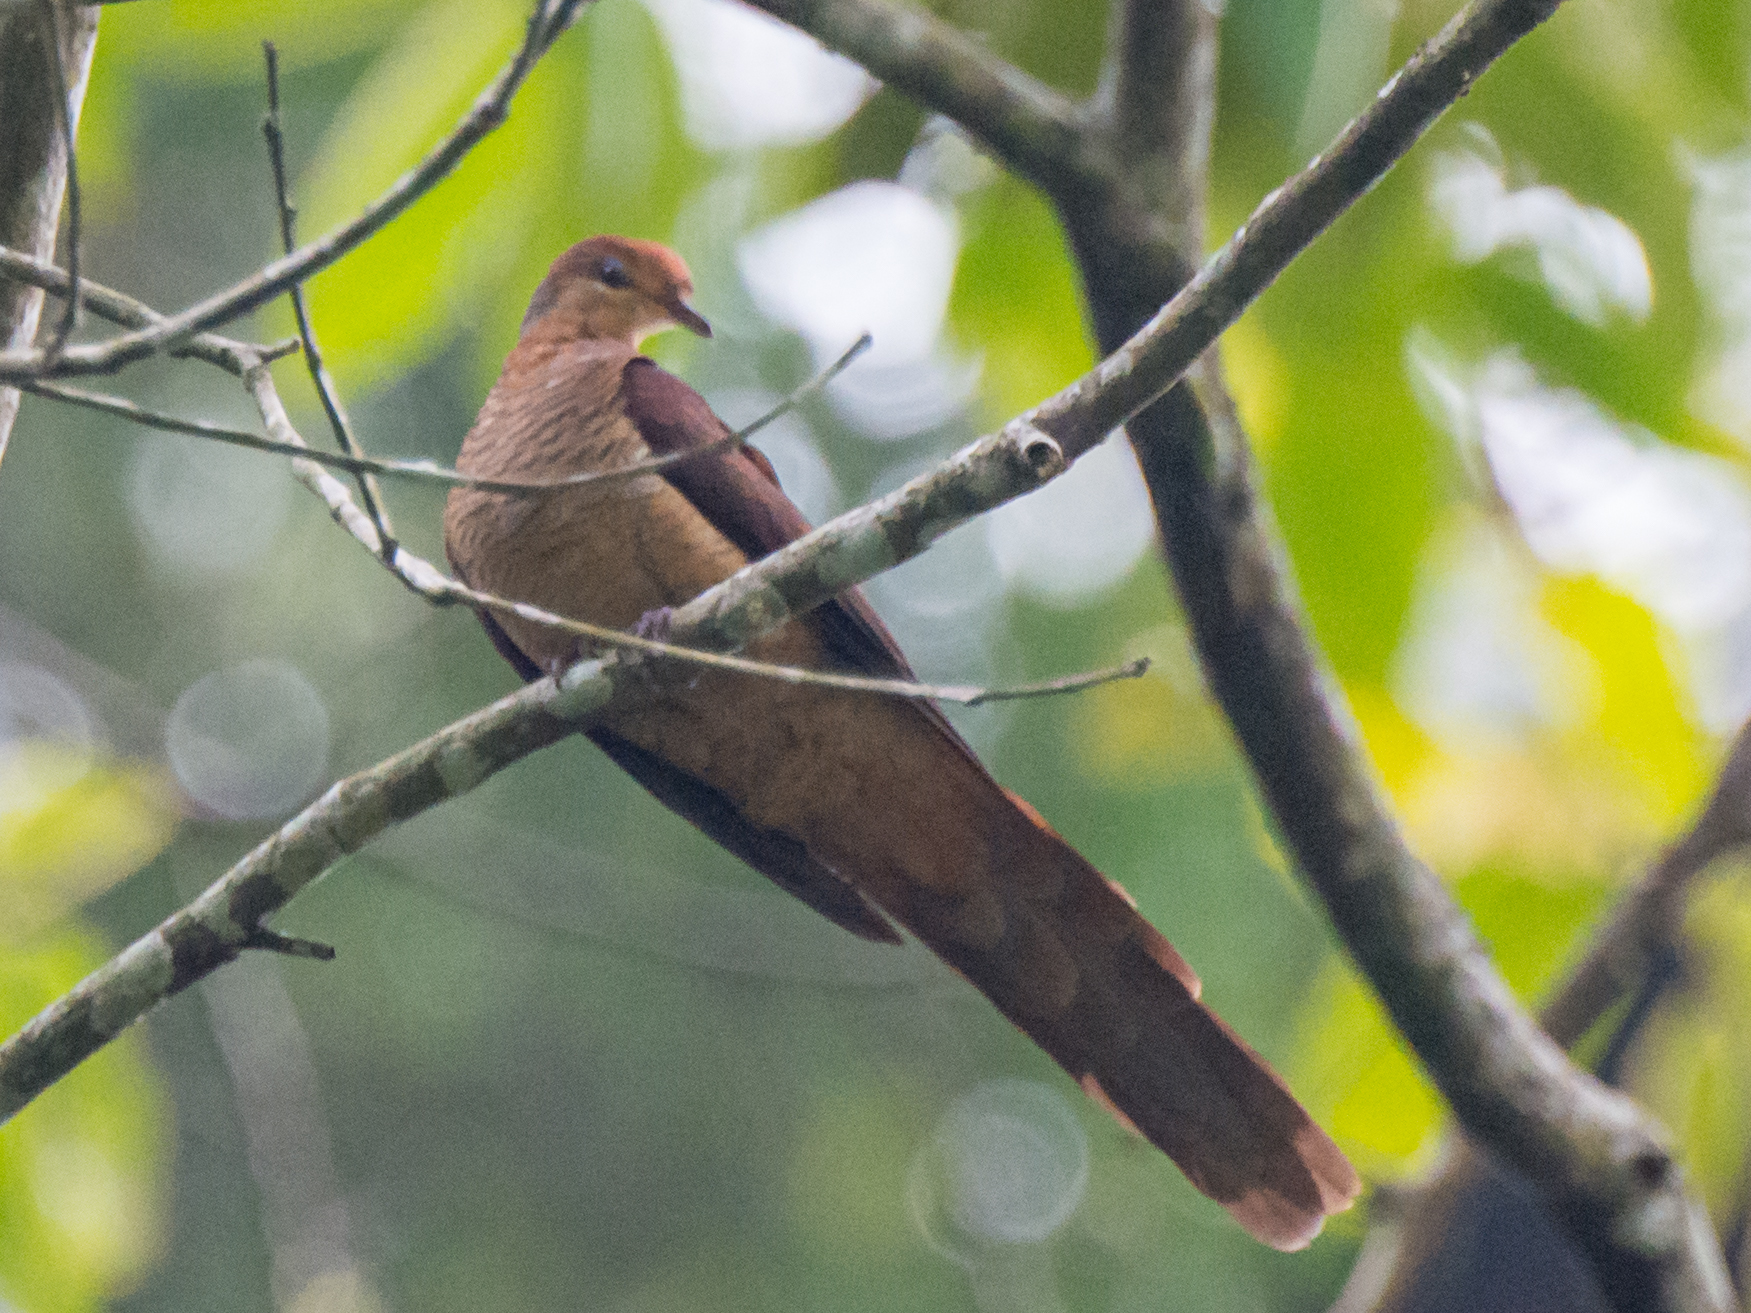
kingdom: Animalia
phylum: Chordata
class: Aves
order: Columbiformes
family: Columbidae
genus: Macropygia
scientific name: Macropygia doreya
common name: Sultan's cuckoo-dove
